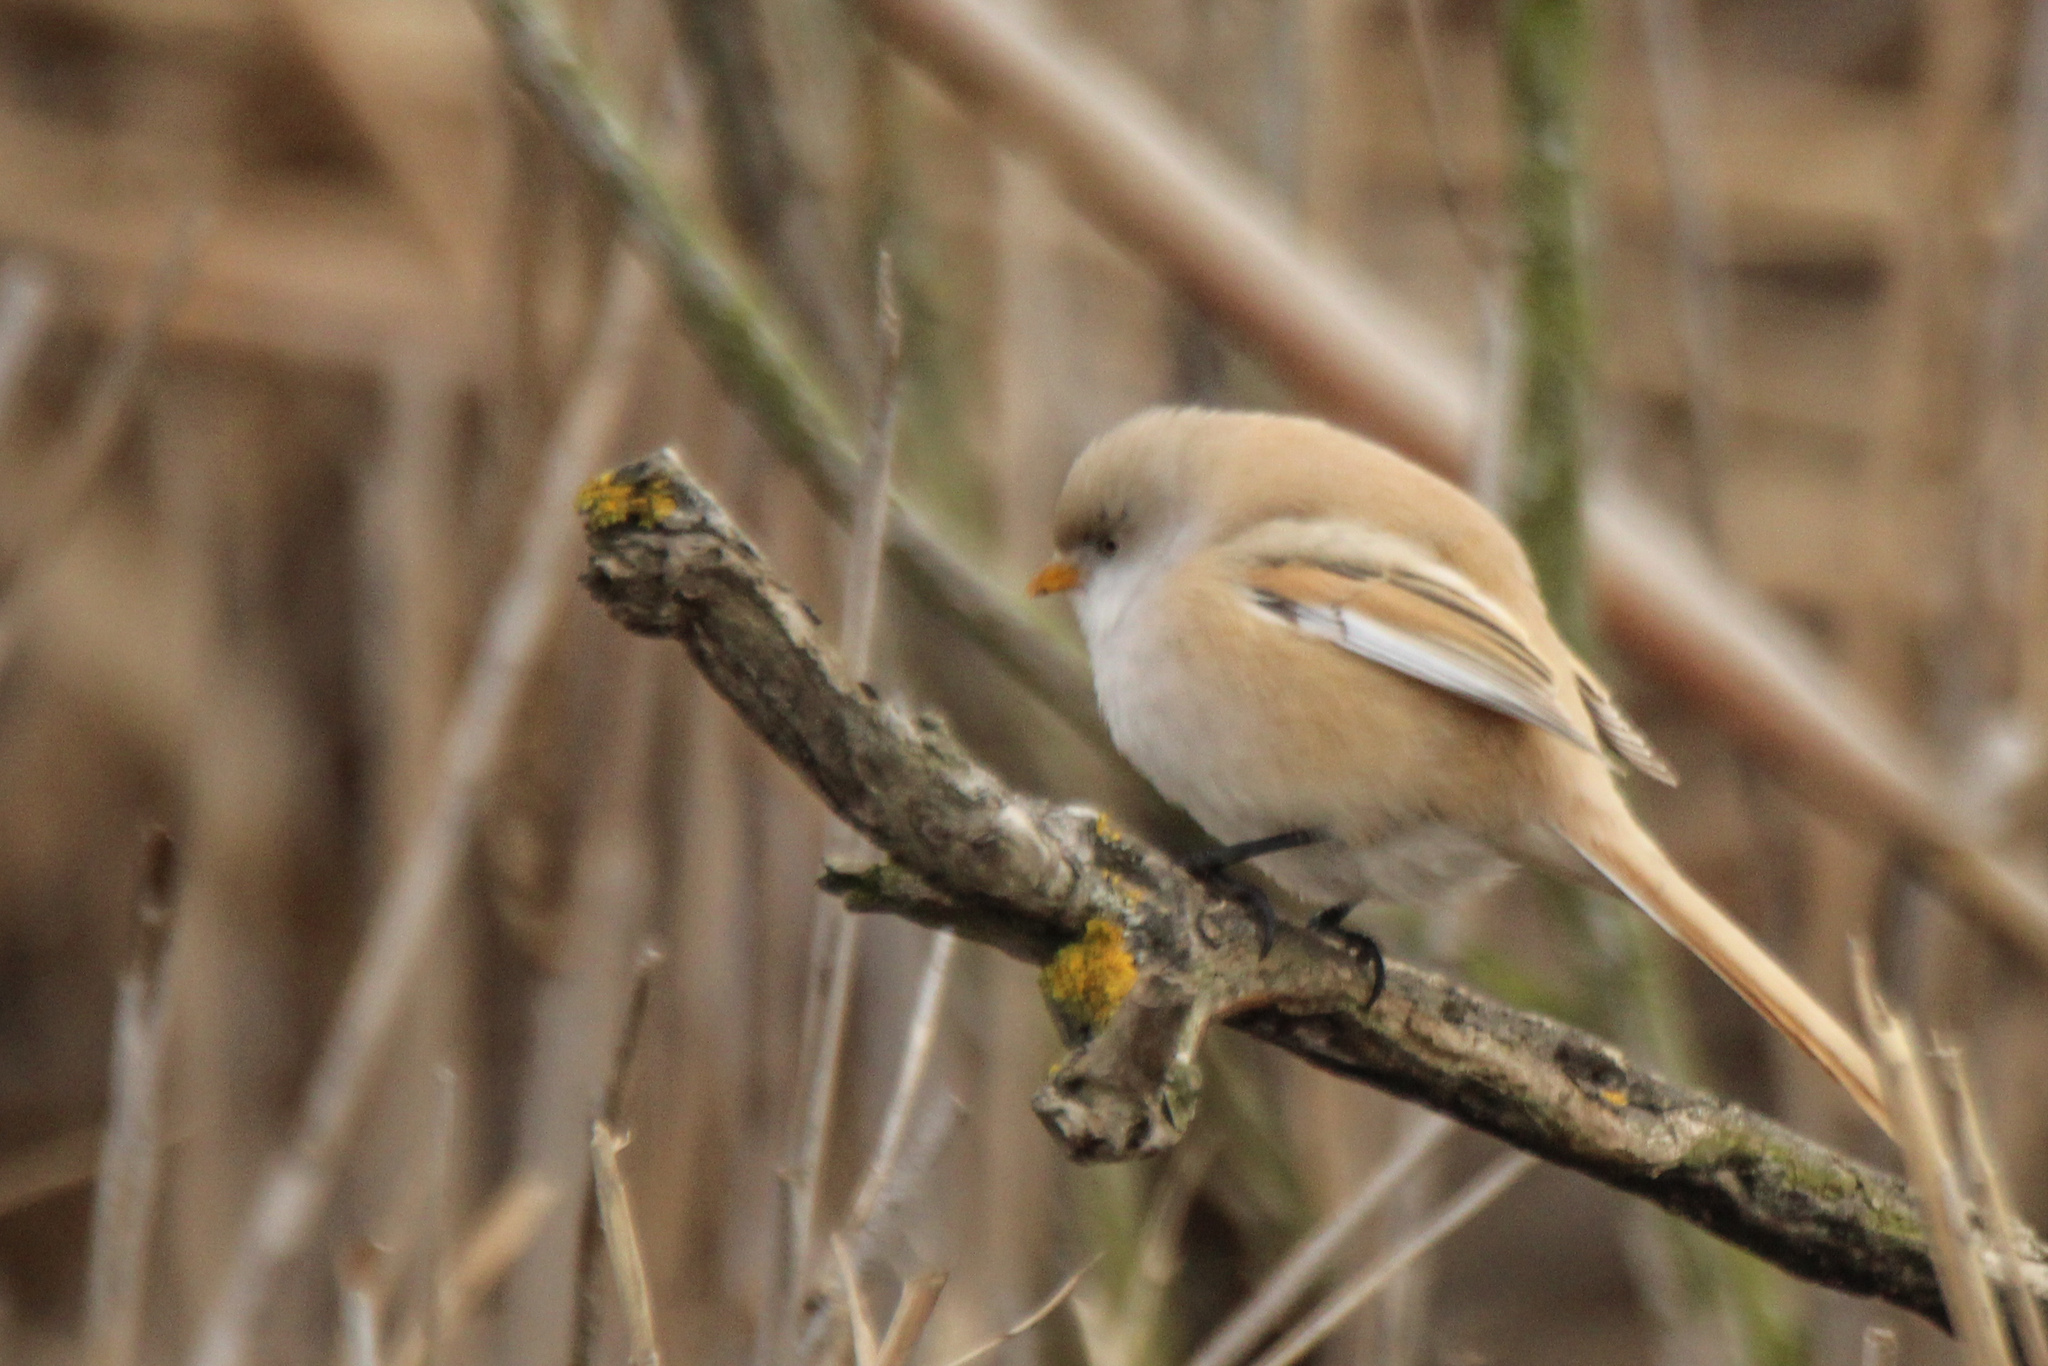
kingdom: Animalia
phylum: Chordata
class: Aves
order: Passeriformes
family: Panuridae
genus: Panurus
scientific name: Panurus biarmicus
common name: Bearded reedling
